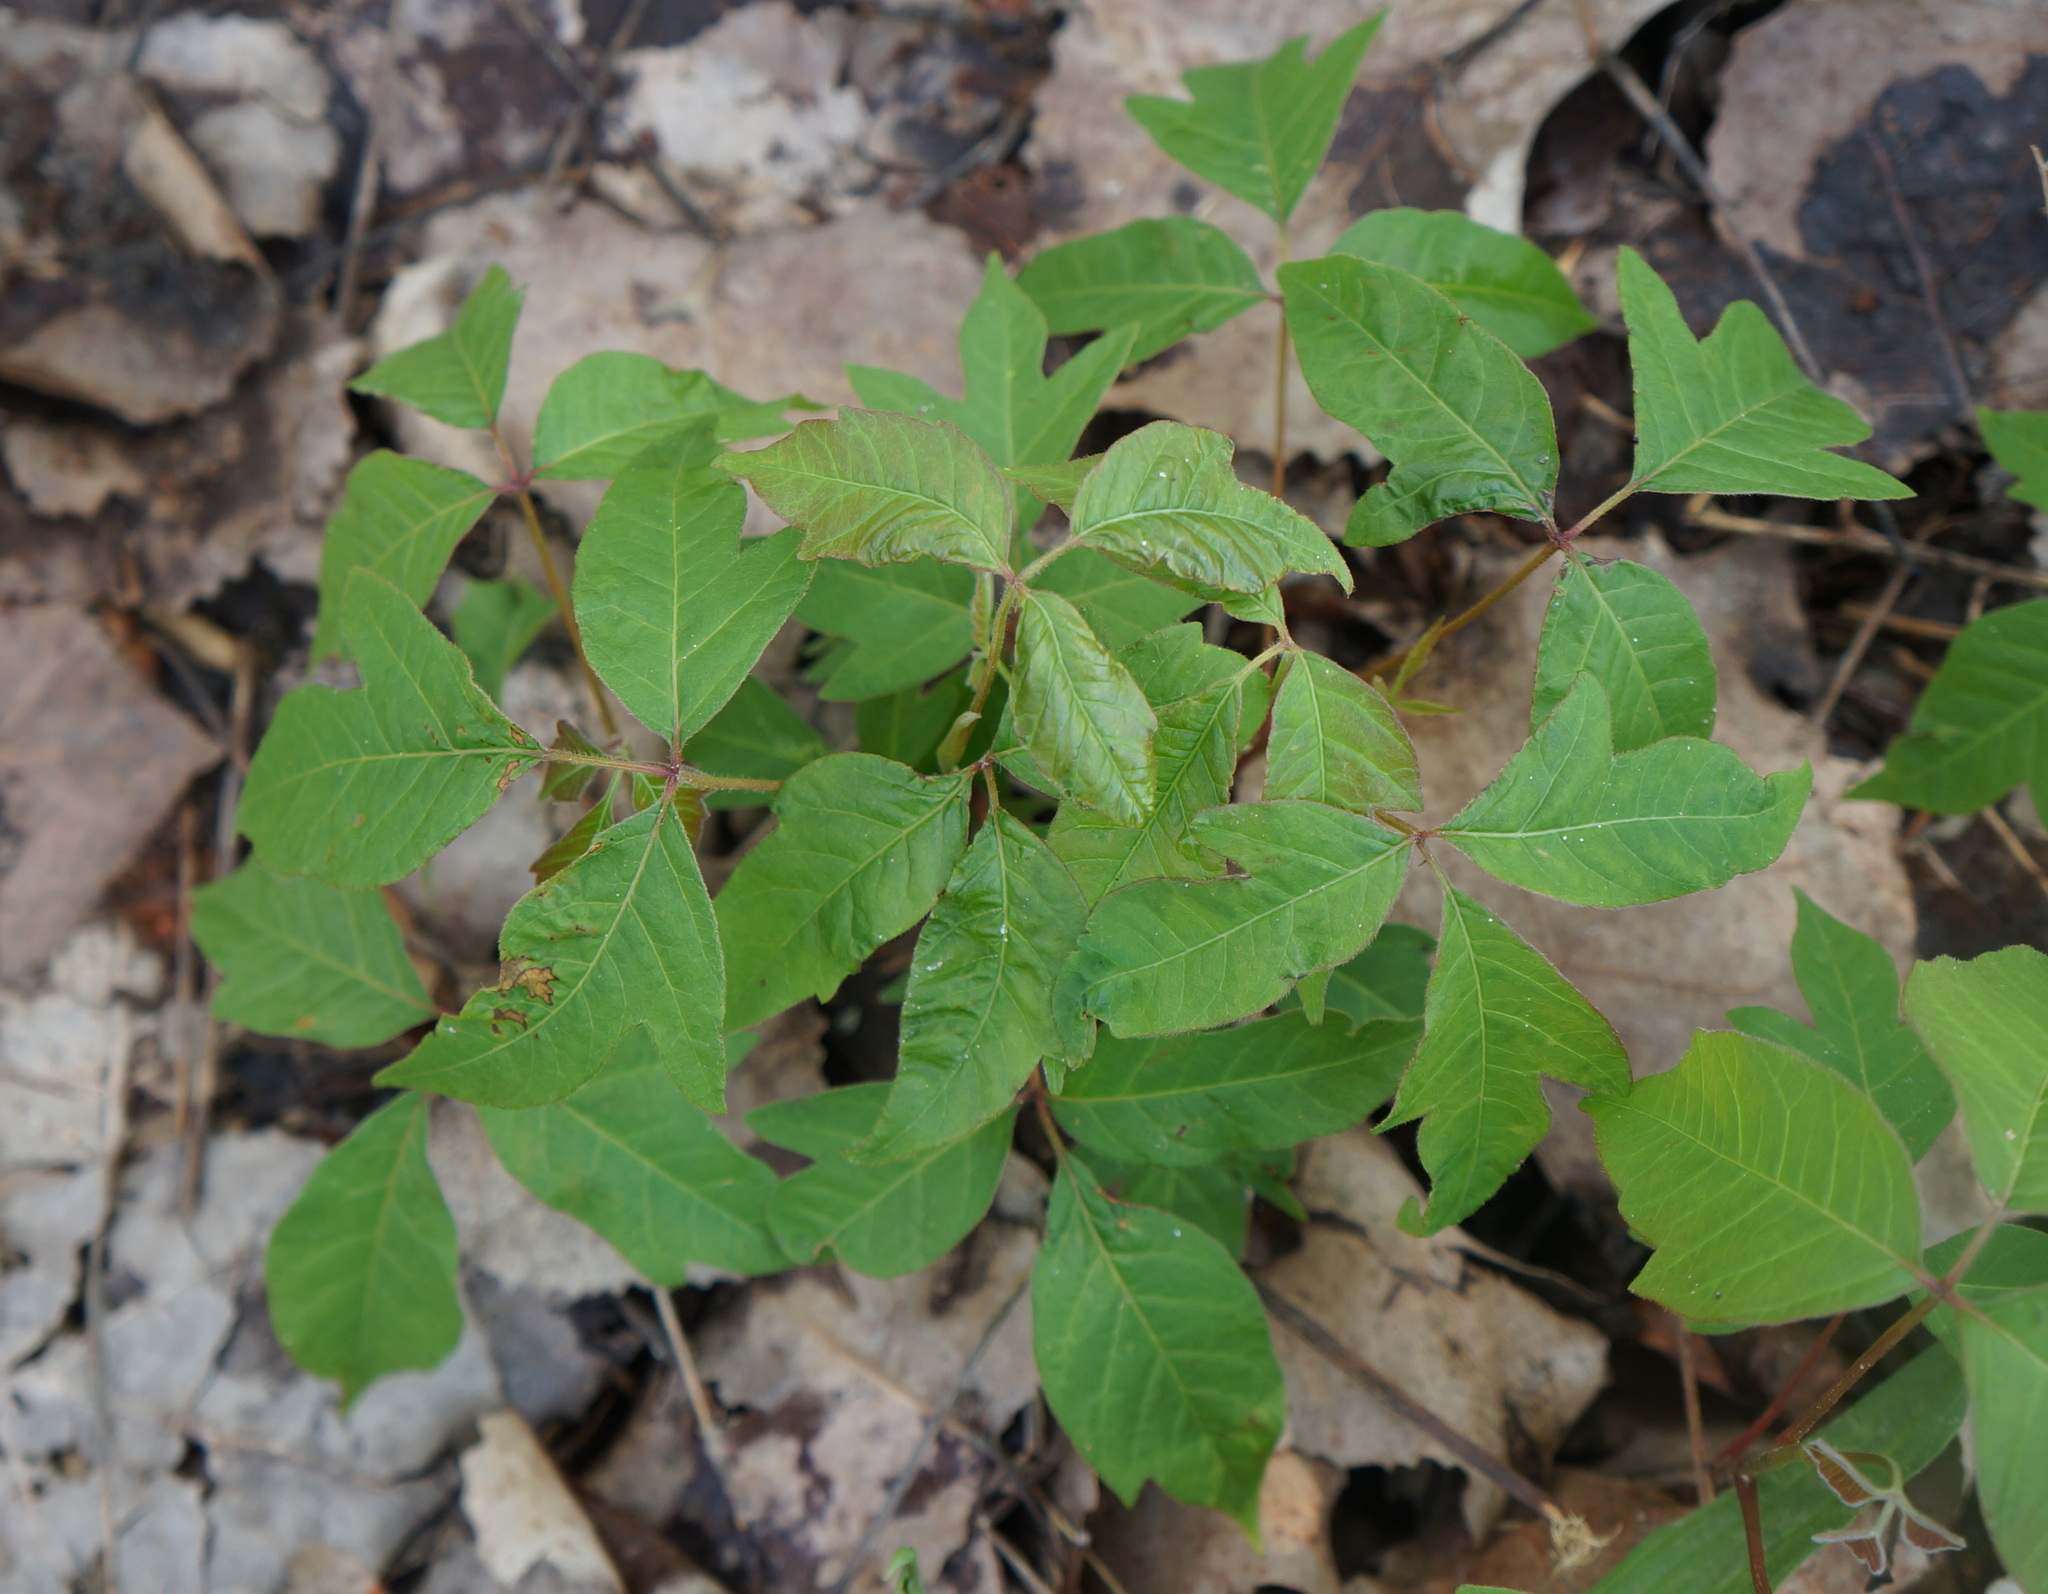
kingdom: Plantae
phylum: Tracheophyta
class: Magnoliopsida
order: Sapindales
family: Anacardiaceae
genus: Toxicodendron
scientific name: Toxicodendron radicans
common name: Poison ivy
